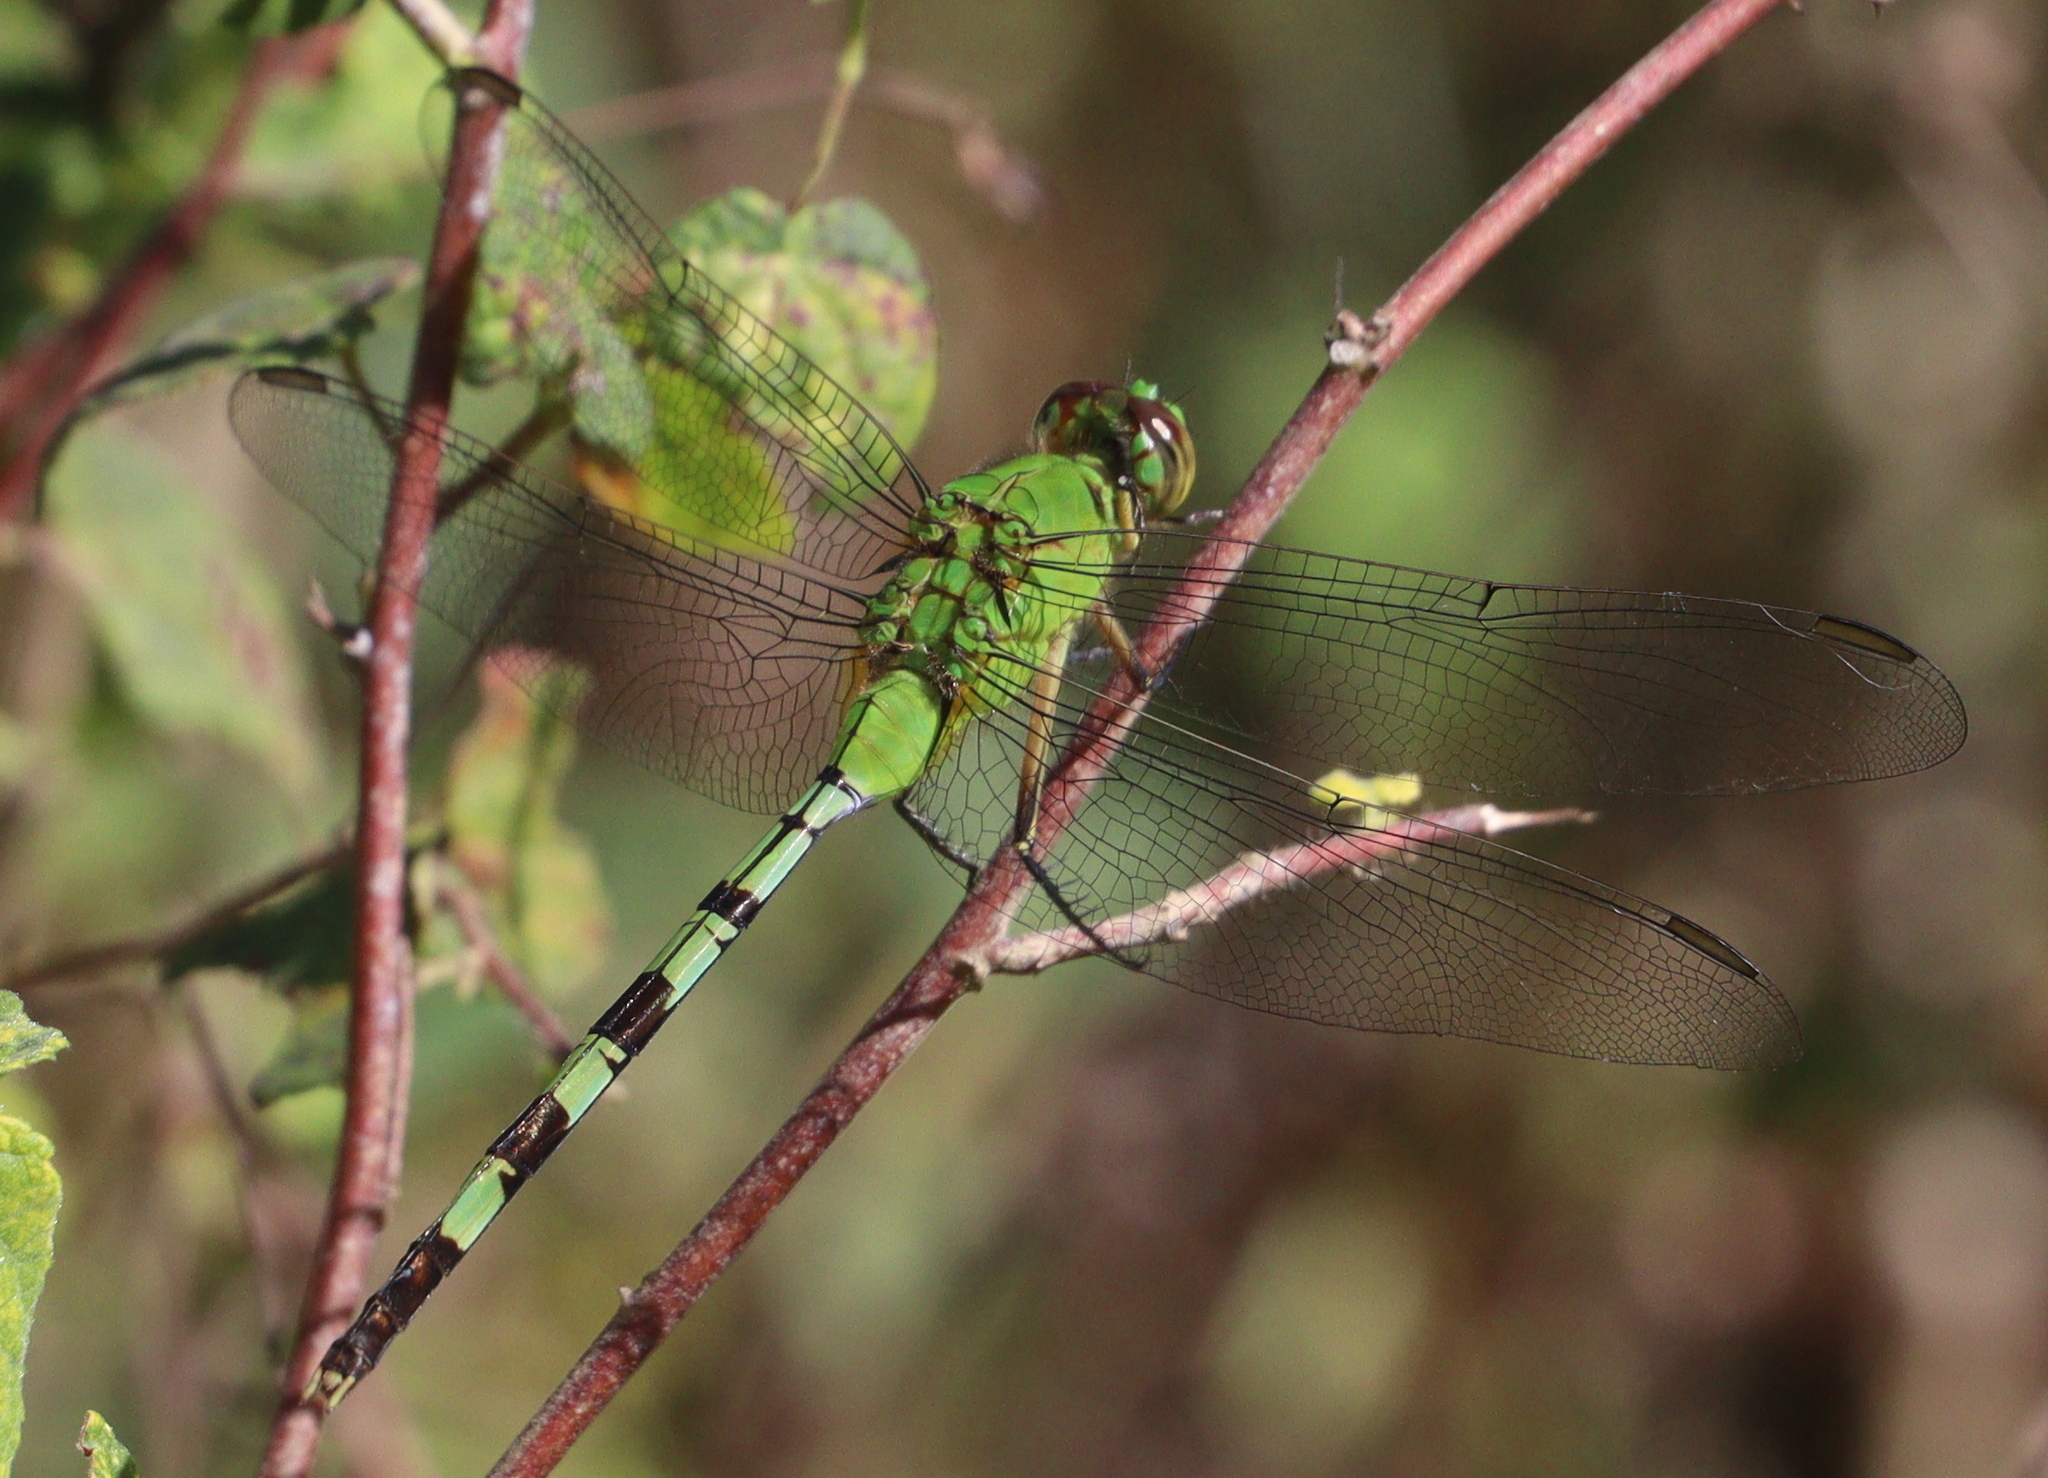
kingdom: Animalia
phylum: Arthropoda
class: Insecta
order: Odonata
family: Libellulidae
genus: Erythemis
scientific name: Erythemis vesiculosa
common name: Great pondhawk
